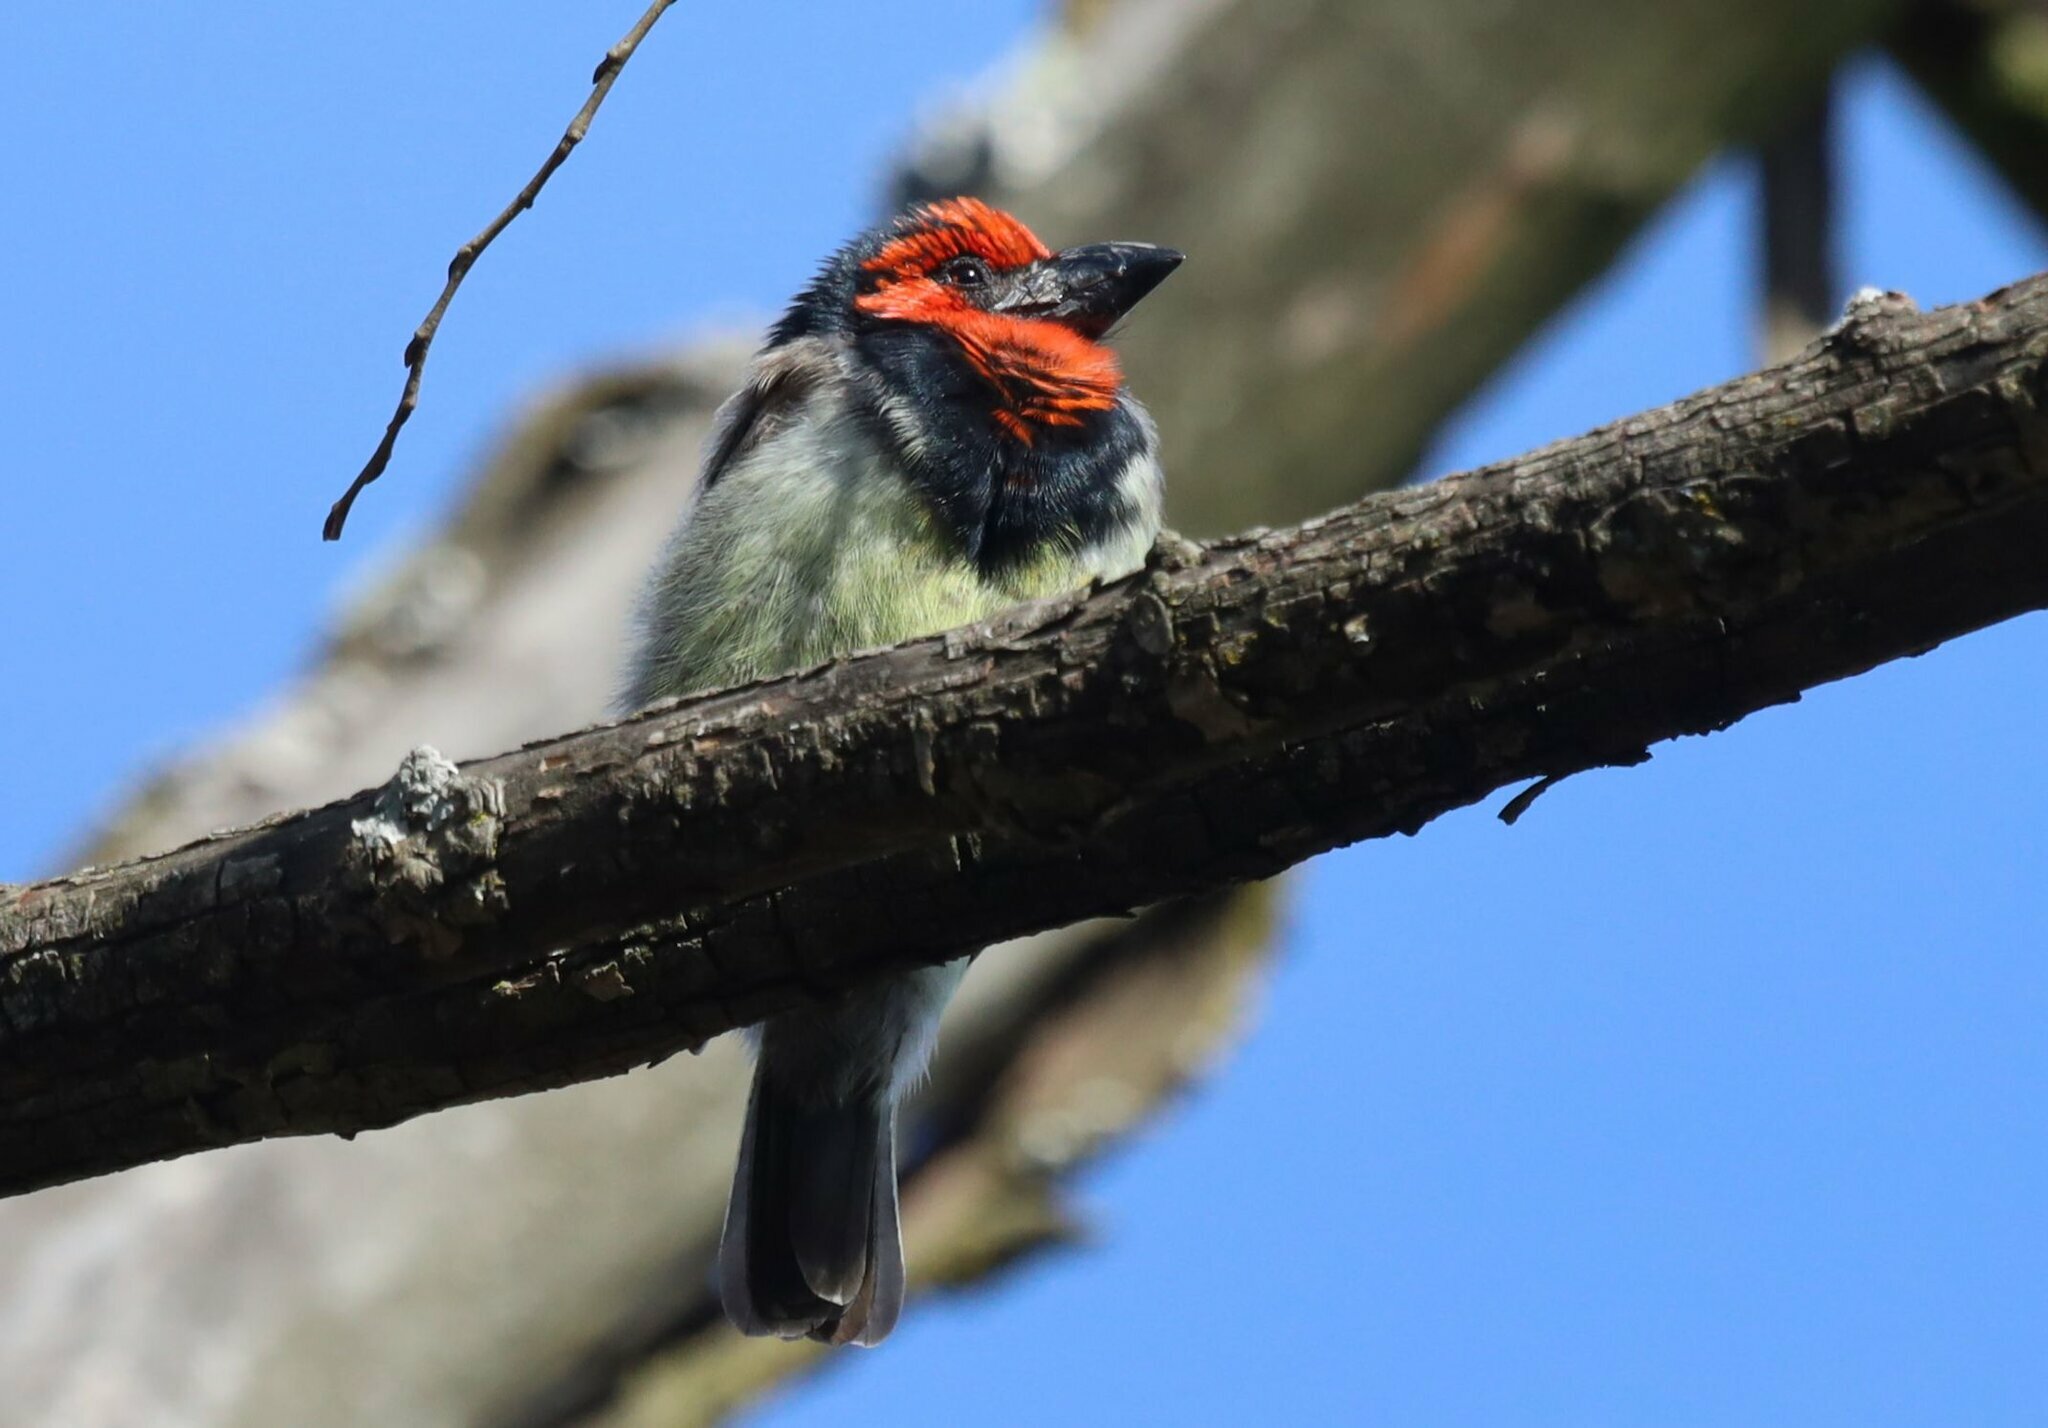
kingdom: Animalia
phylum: Chordata
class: Aves
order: Piciformes
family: Lybiidae
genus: Lybius
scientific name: Lybius torquatus
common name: Black-collared barbet
